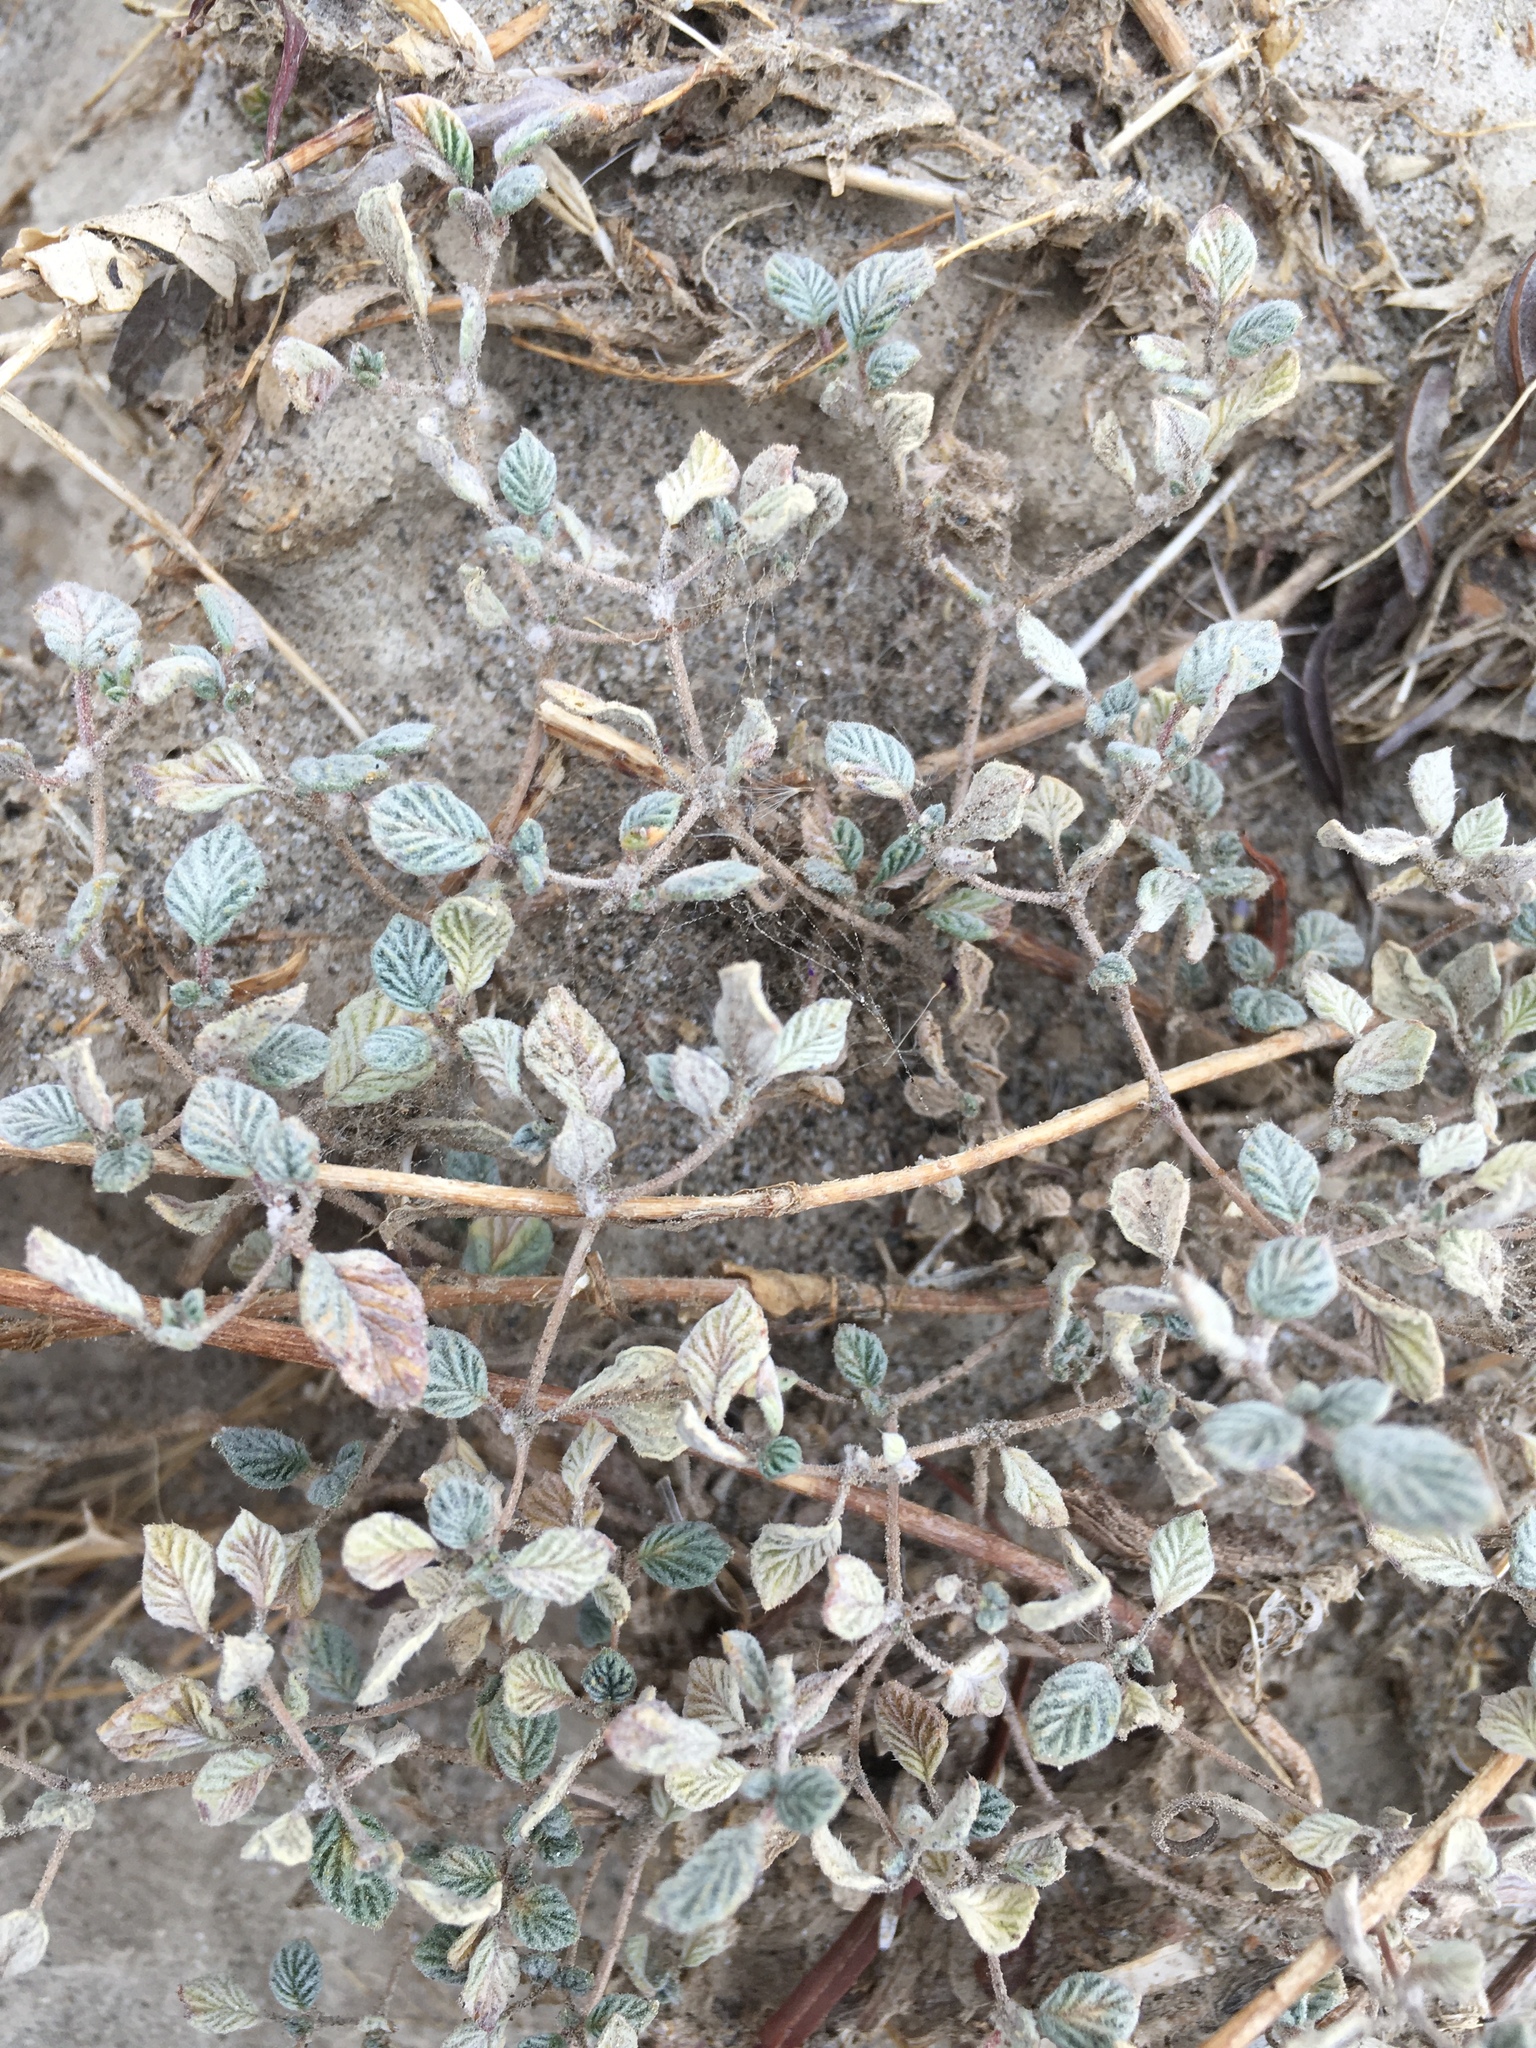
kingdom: Plantae
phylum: Tracheophyta
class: Magnoliopsida
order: Boraginales
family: Ehretiaceae
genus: Tiquilia
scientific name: Tiquilia plicata
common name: Fan-leaf tiquilia
